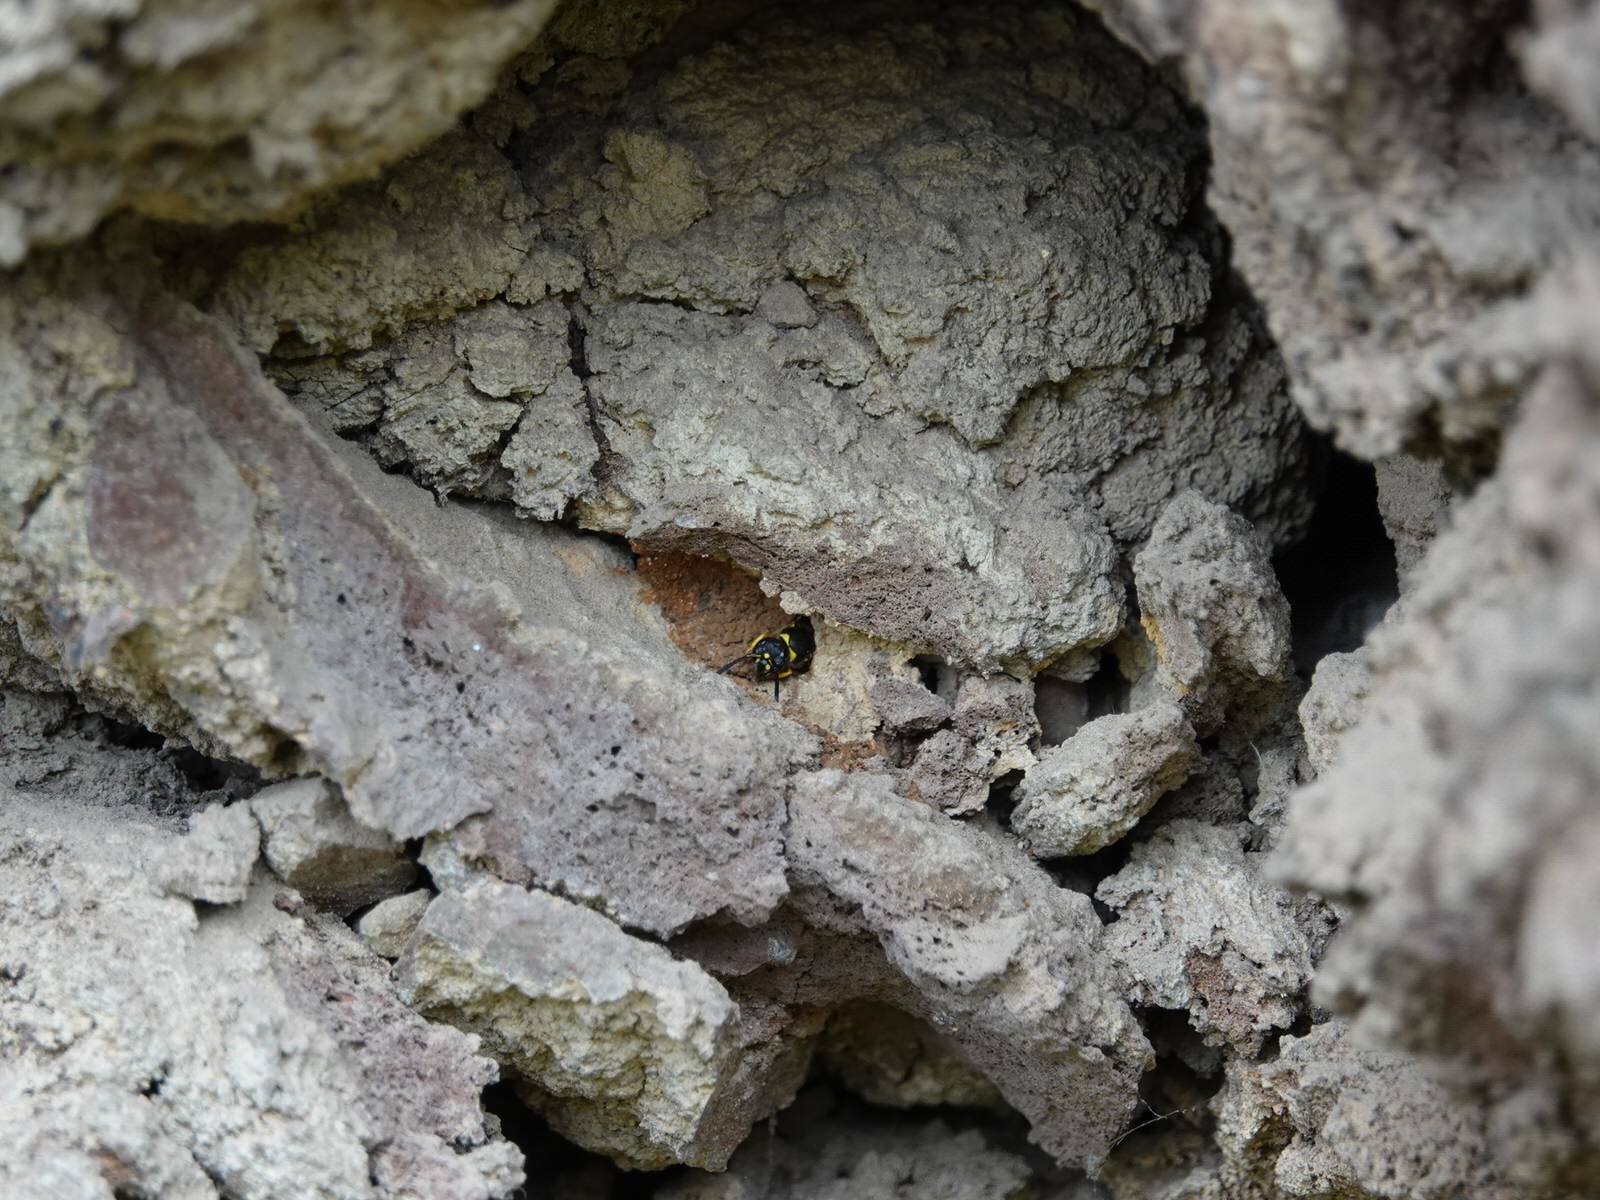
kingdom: Animalia
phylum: Arthropoda
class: Insecta
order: Hymenoptera
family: Vespidae
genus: Ancistrocerus
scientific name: Ancistrocerus gazella
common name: European tube wasp
